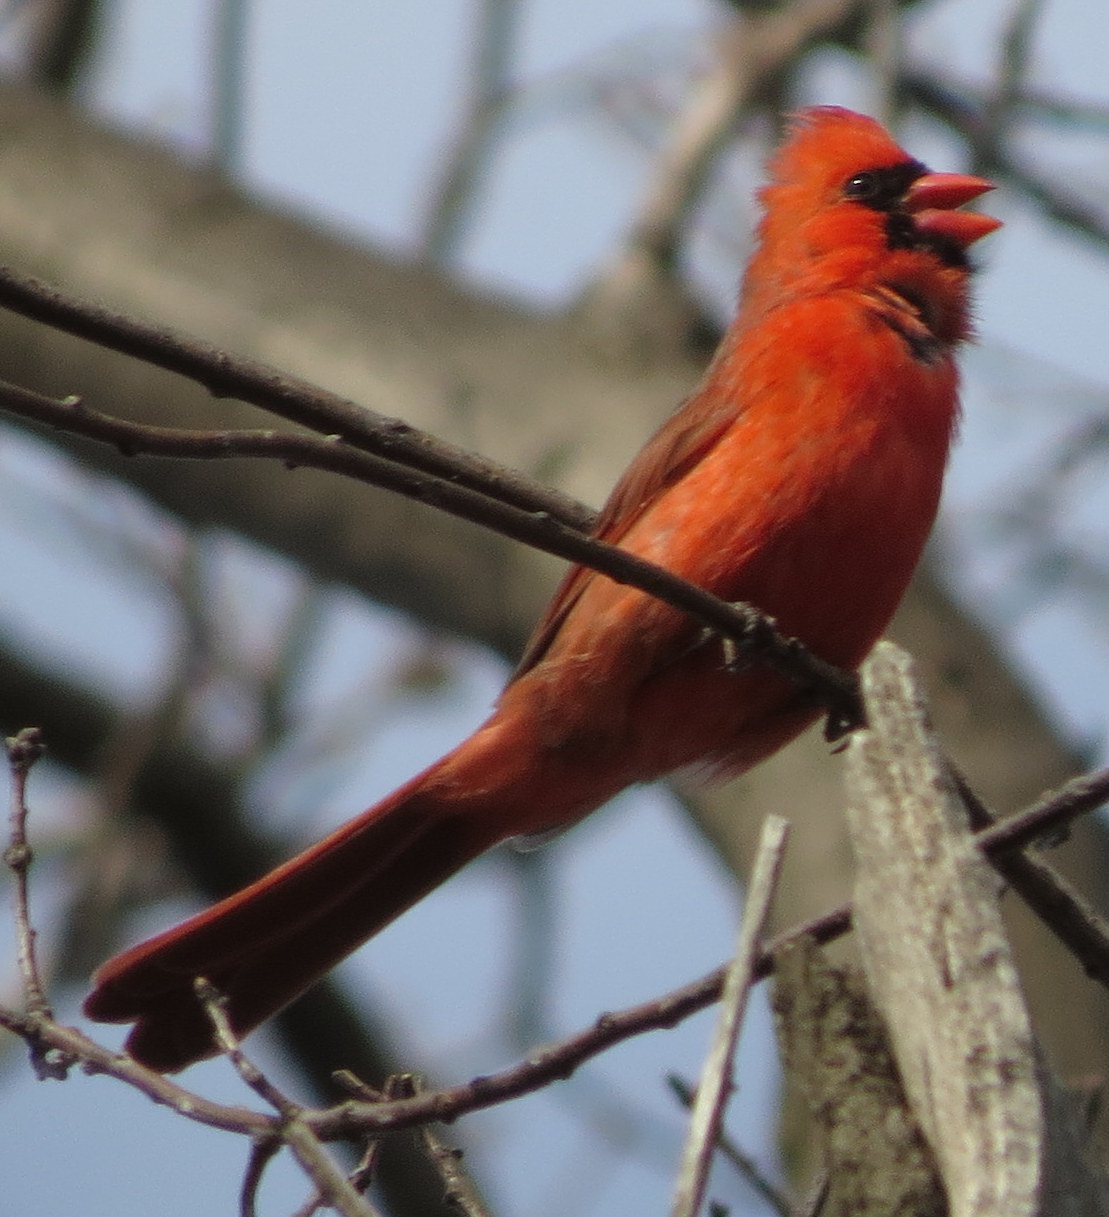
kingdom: Animalia
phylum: Chordata
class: Aves
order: Passeriformes
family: Cardinalidae
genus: Cardinalis
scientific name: Cardinalis cardinalis
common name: Northern cardinal
